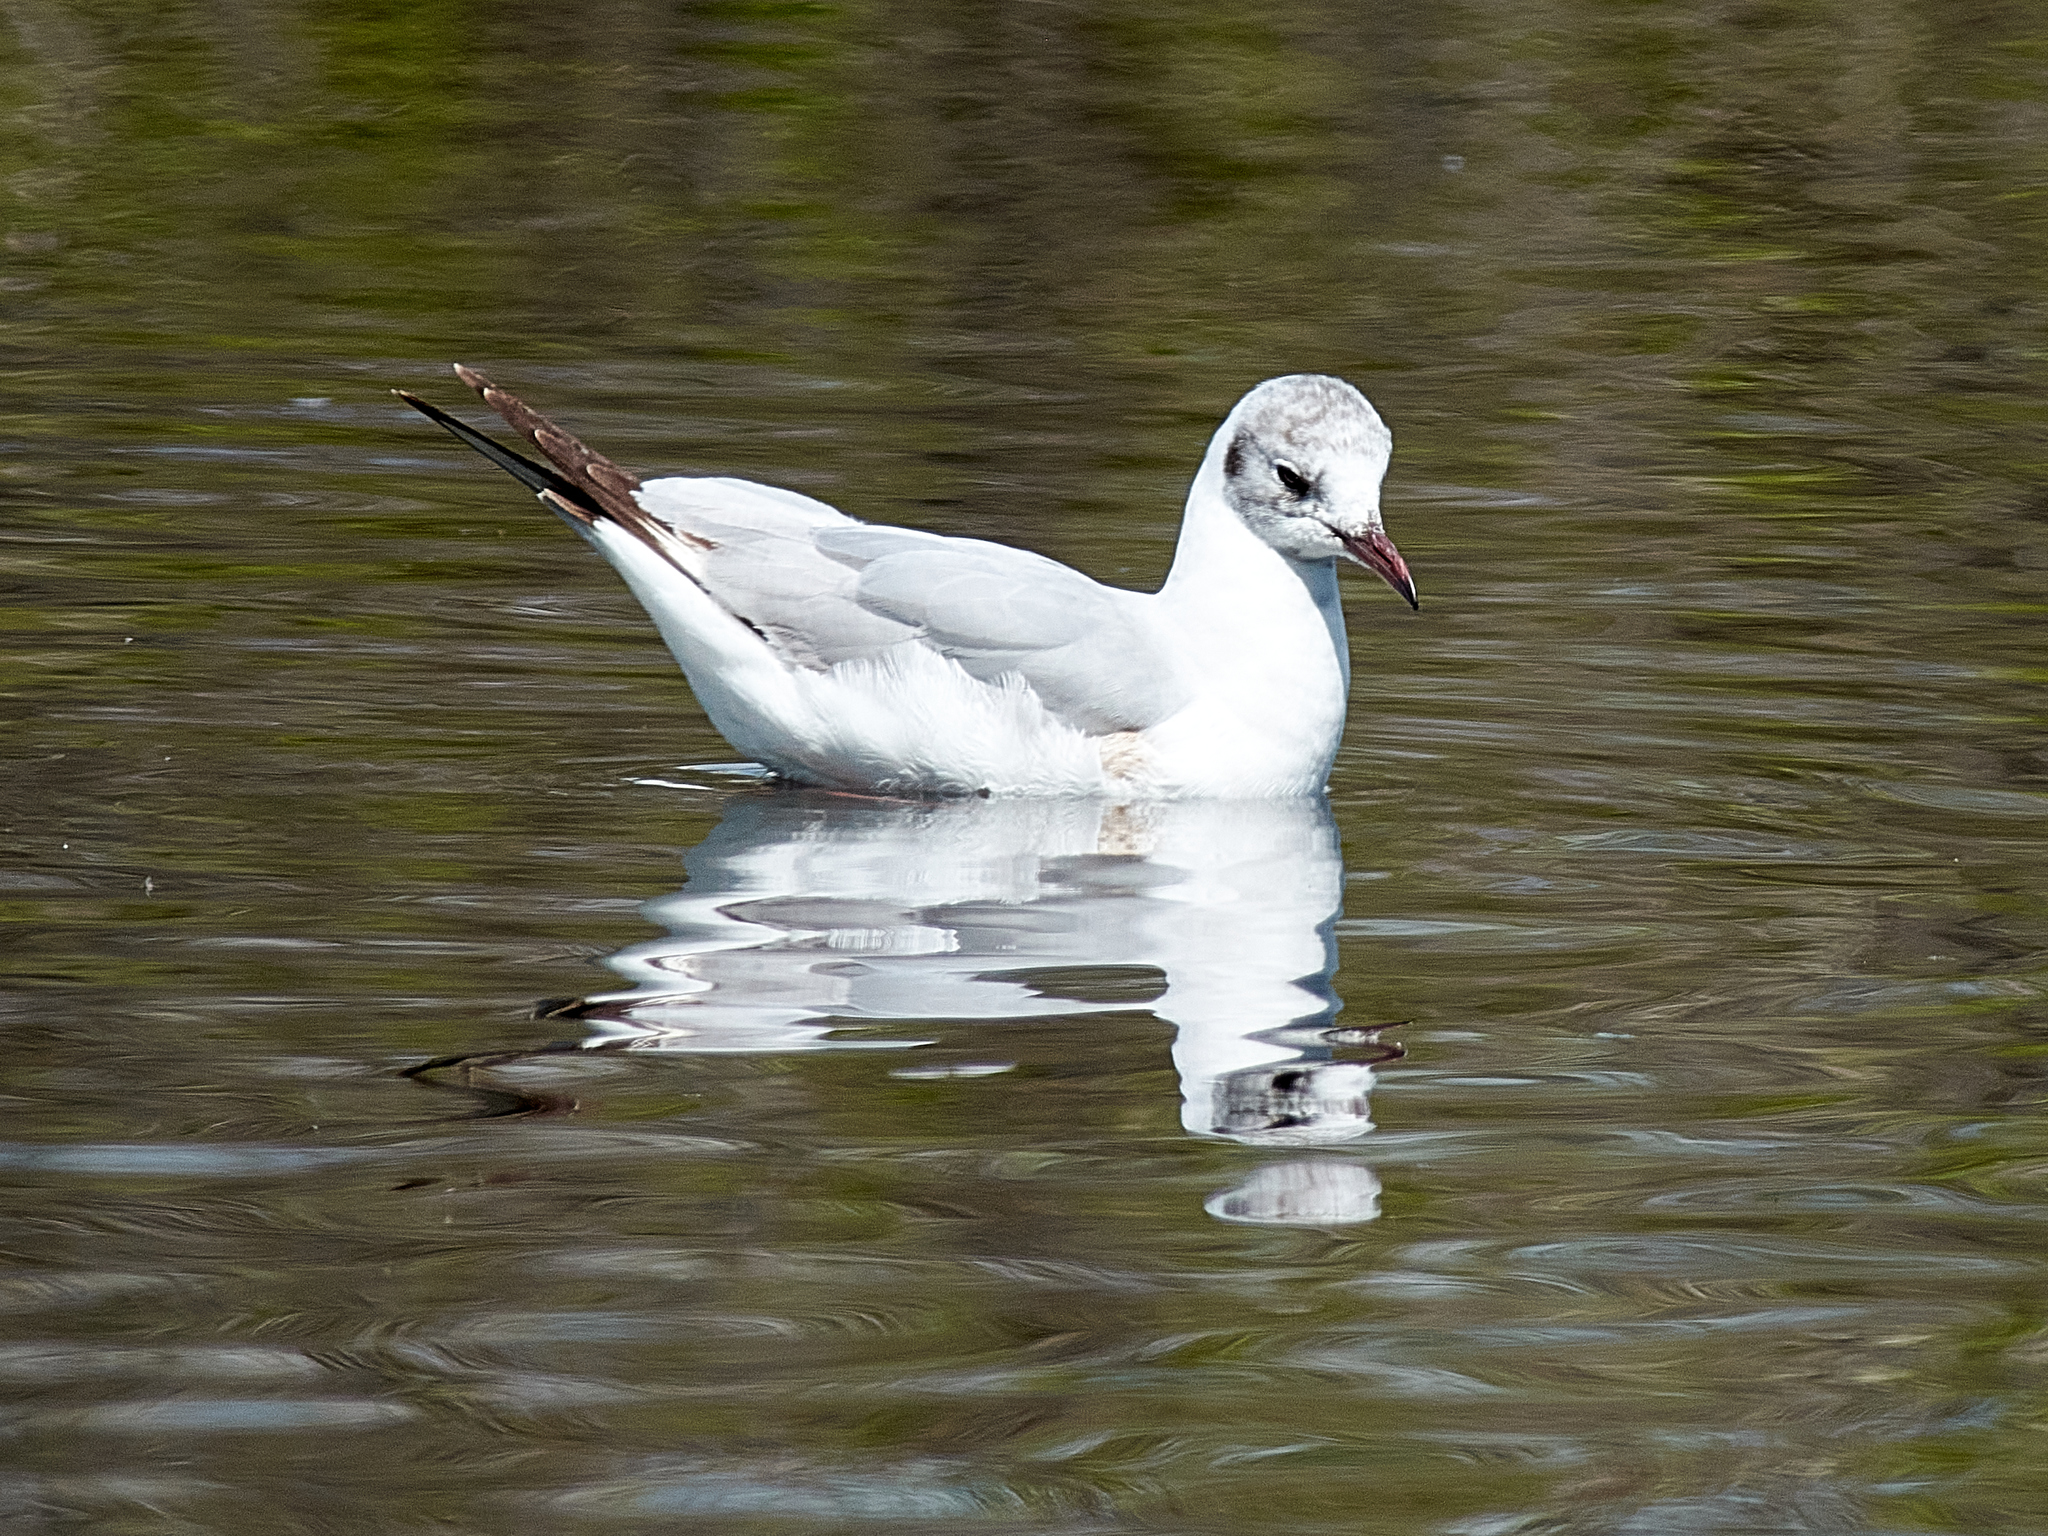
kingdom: Animalia
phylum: Chordata
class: Aves
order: Charadriiformes
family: Laridae
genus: Chroicocephalus
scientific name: Chroicocephalus ridibundus
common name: Black-headed gull
